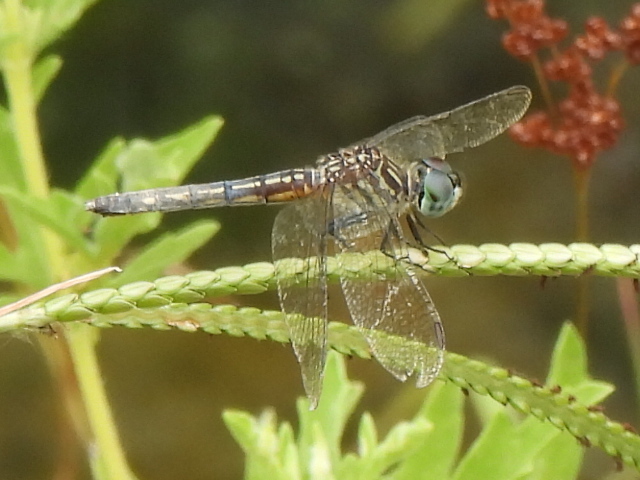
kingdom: Animalia
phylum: Arthropoda
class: Insecta
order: Odonata
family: Libellulidae
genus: Pachydiplax
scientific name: Pachydiplax longipennis
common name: Blue dasher
